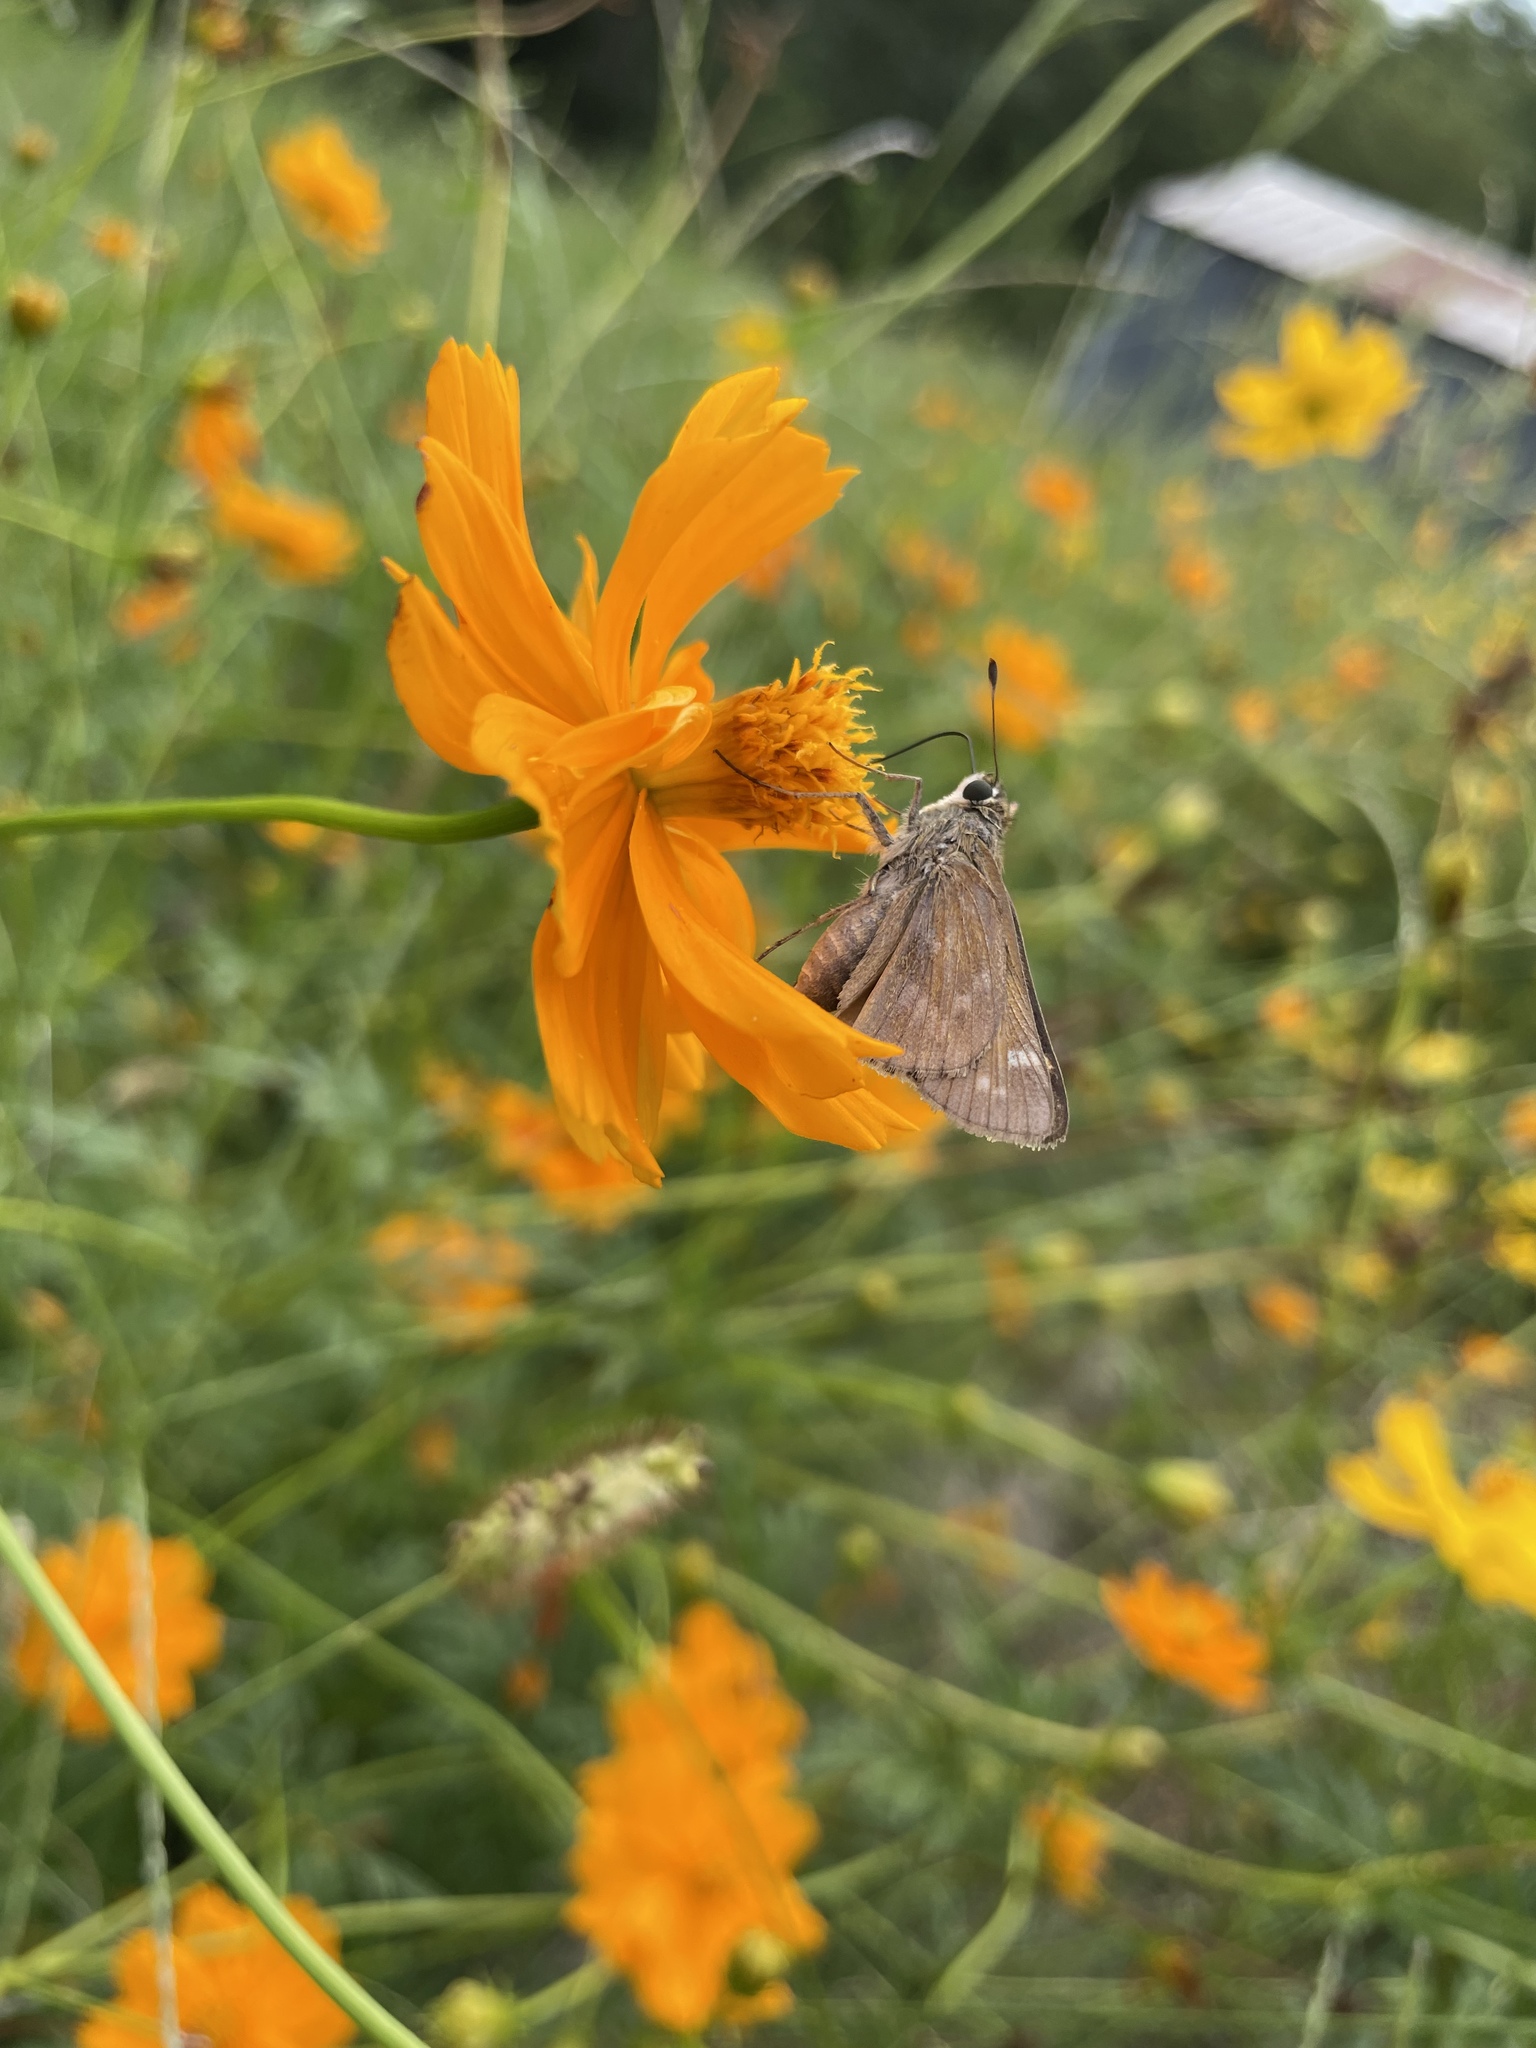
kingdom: Animalia
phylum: Arthropoda
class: Insecta
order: Lepidoptera
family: Hesperiidae
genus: Atalopedes
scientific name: Atalopedes
